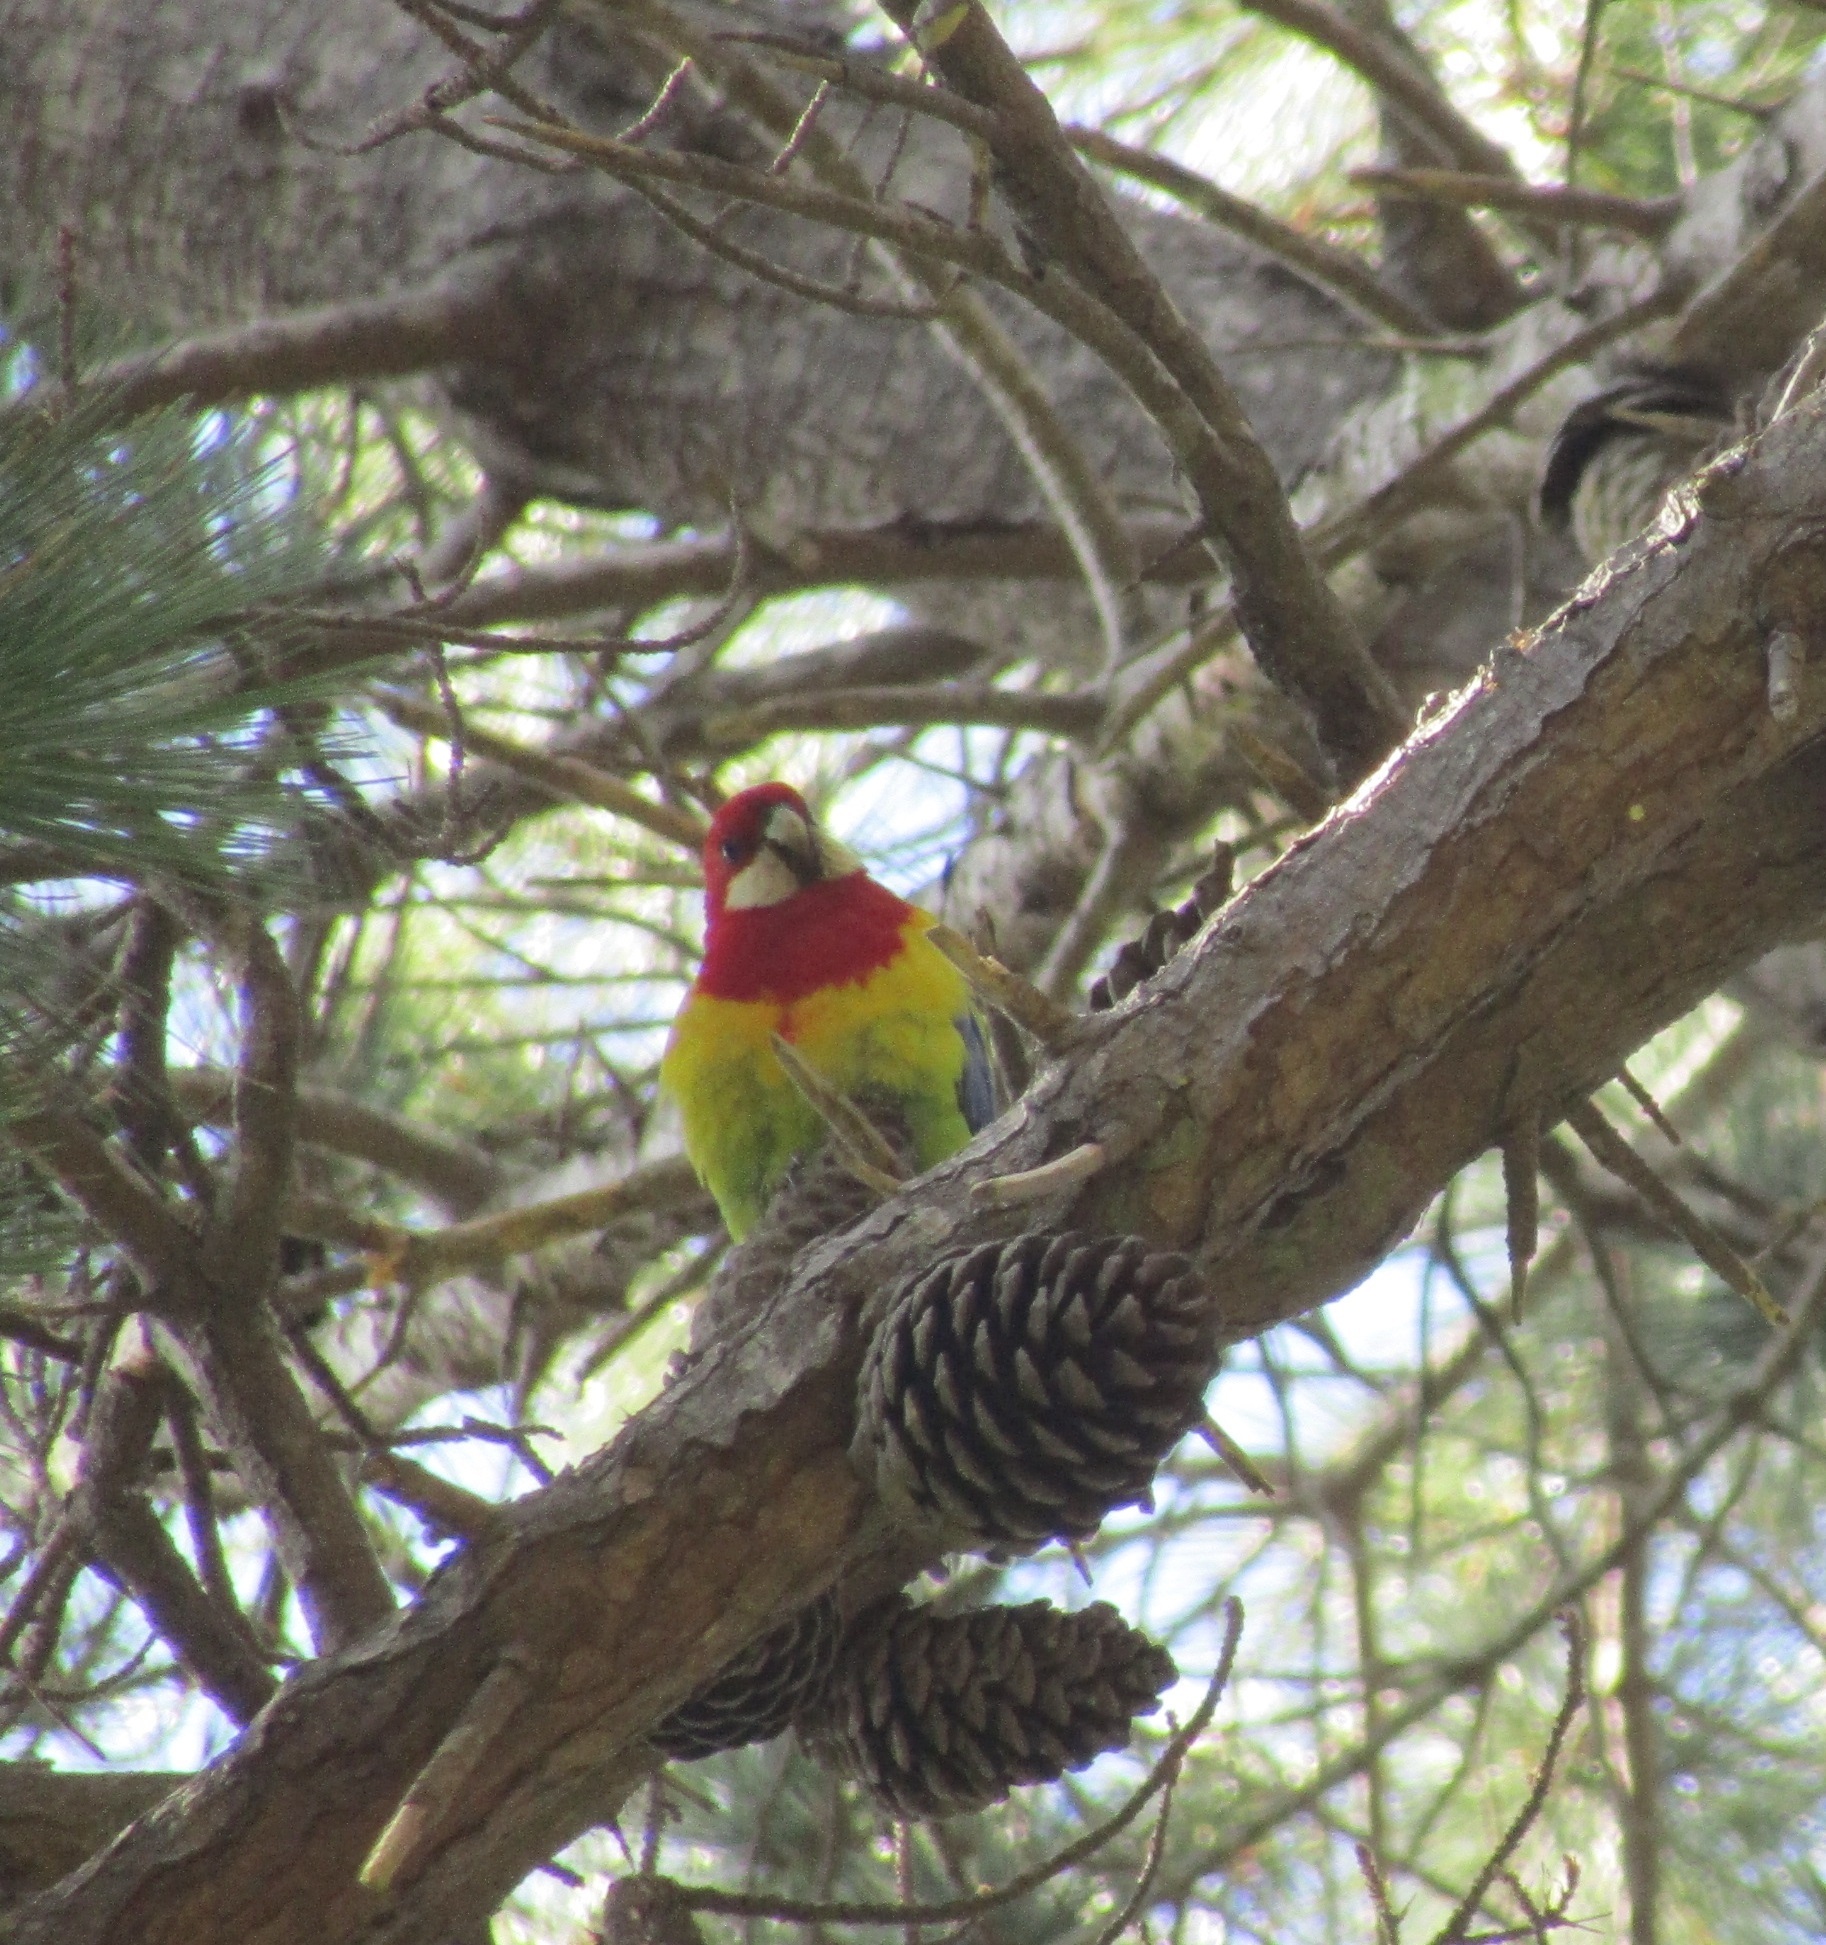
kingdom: Animalia
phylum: Chordata
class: Aves
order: Psittaciformes
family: Psittacidae
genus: Platycercus
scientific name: Platycercus eximius
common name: Eastern rosella
